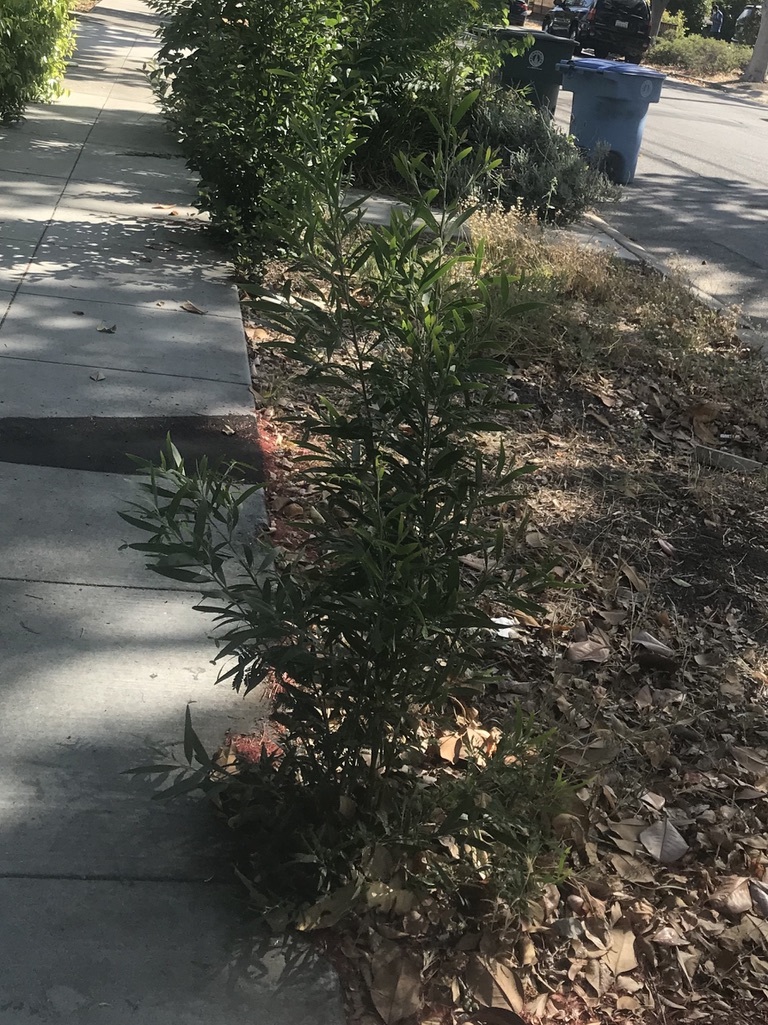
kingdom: Plantae
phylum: Tracheophyta
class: Magnoliopsida
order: Fabales
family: Fabaceae
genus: Acacia
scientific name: Acacia melanoxylon
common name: Blackwood
